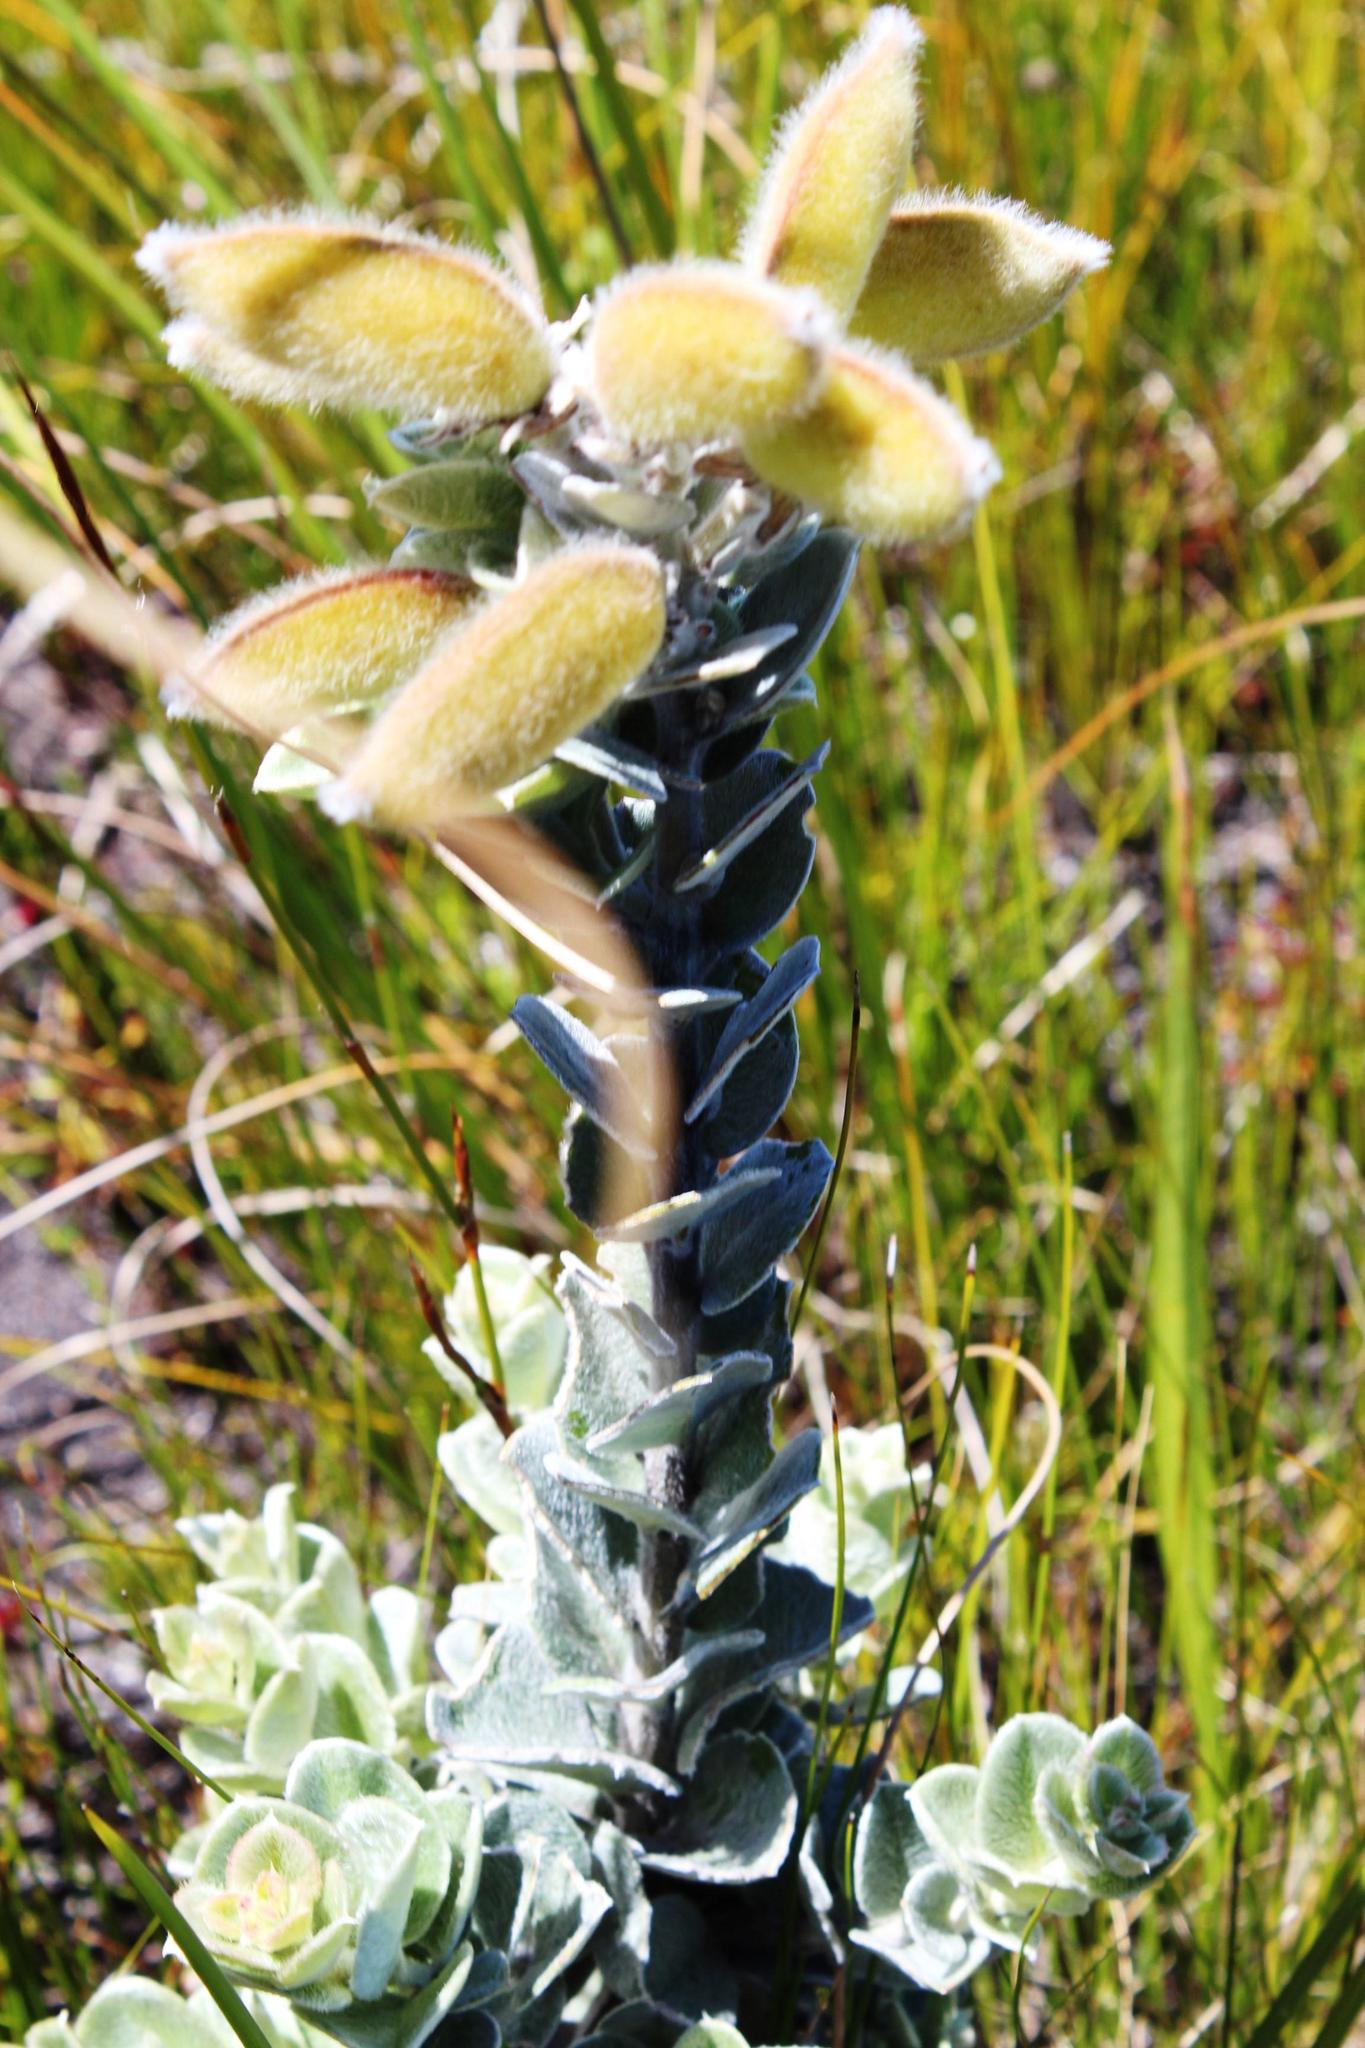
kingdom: Plantae
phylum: Tracheophyta
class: Magnoliopsida
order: Fabales
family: Fabaceae
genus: Podalyria
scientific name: Podalyria hirsuta
